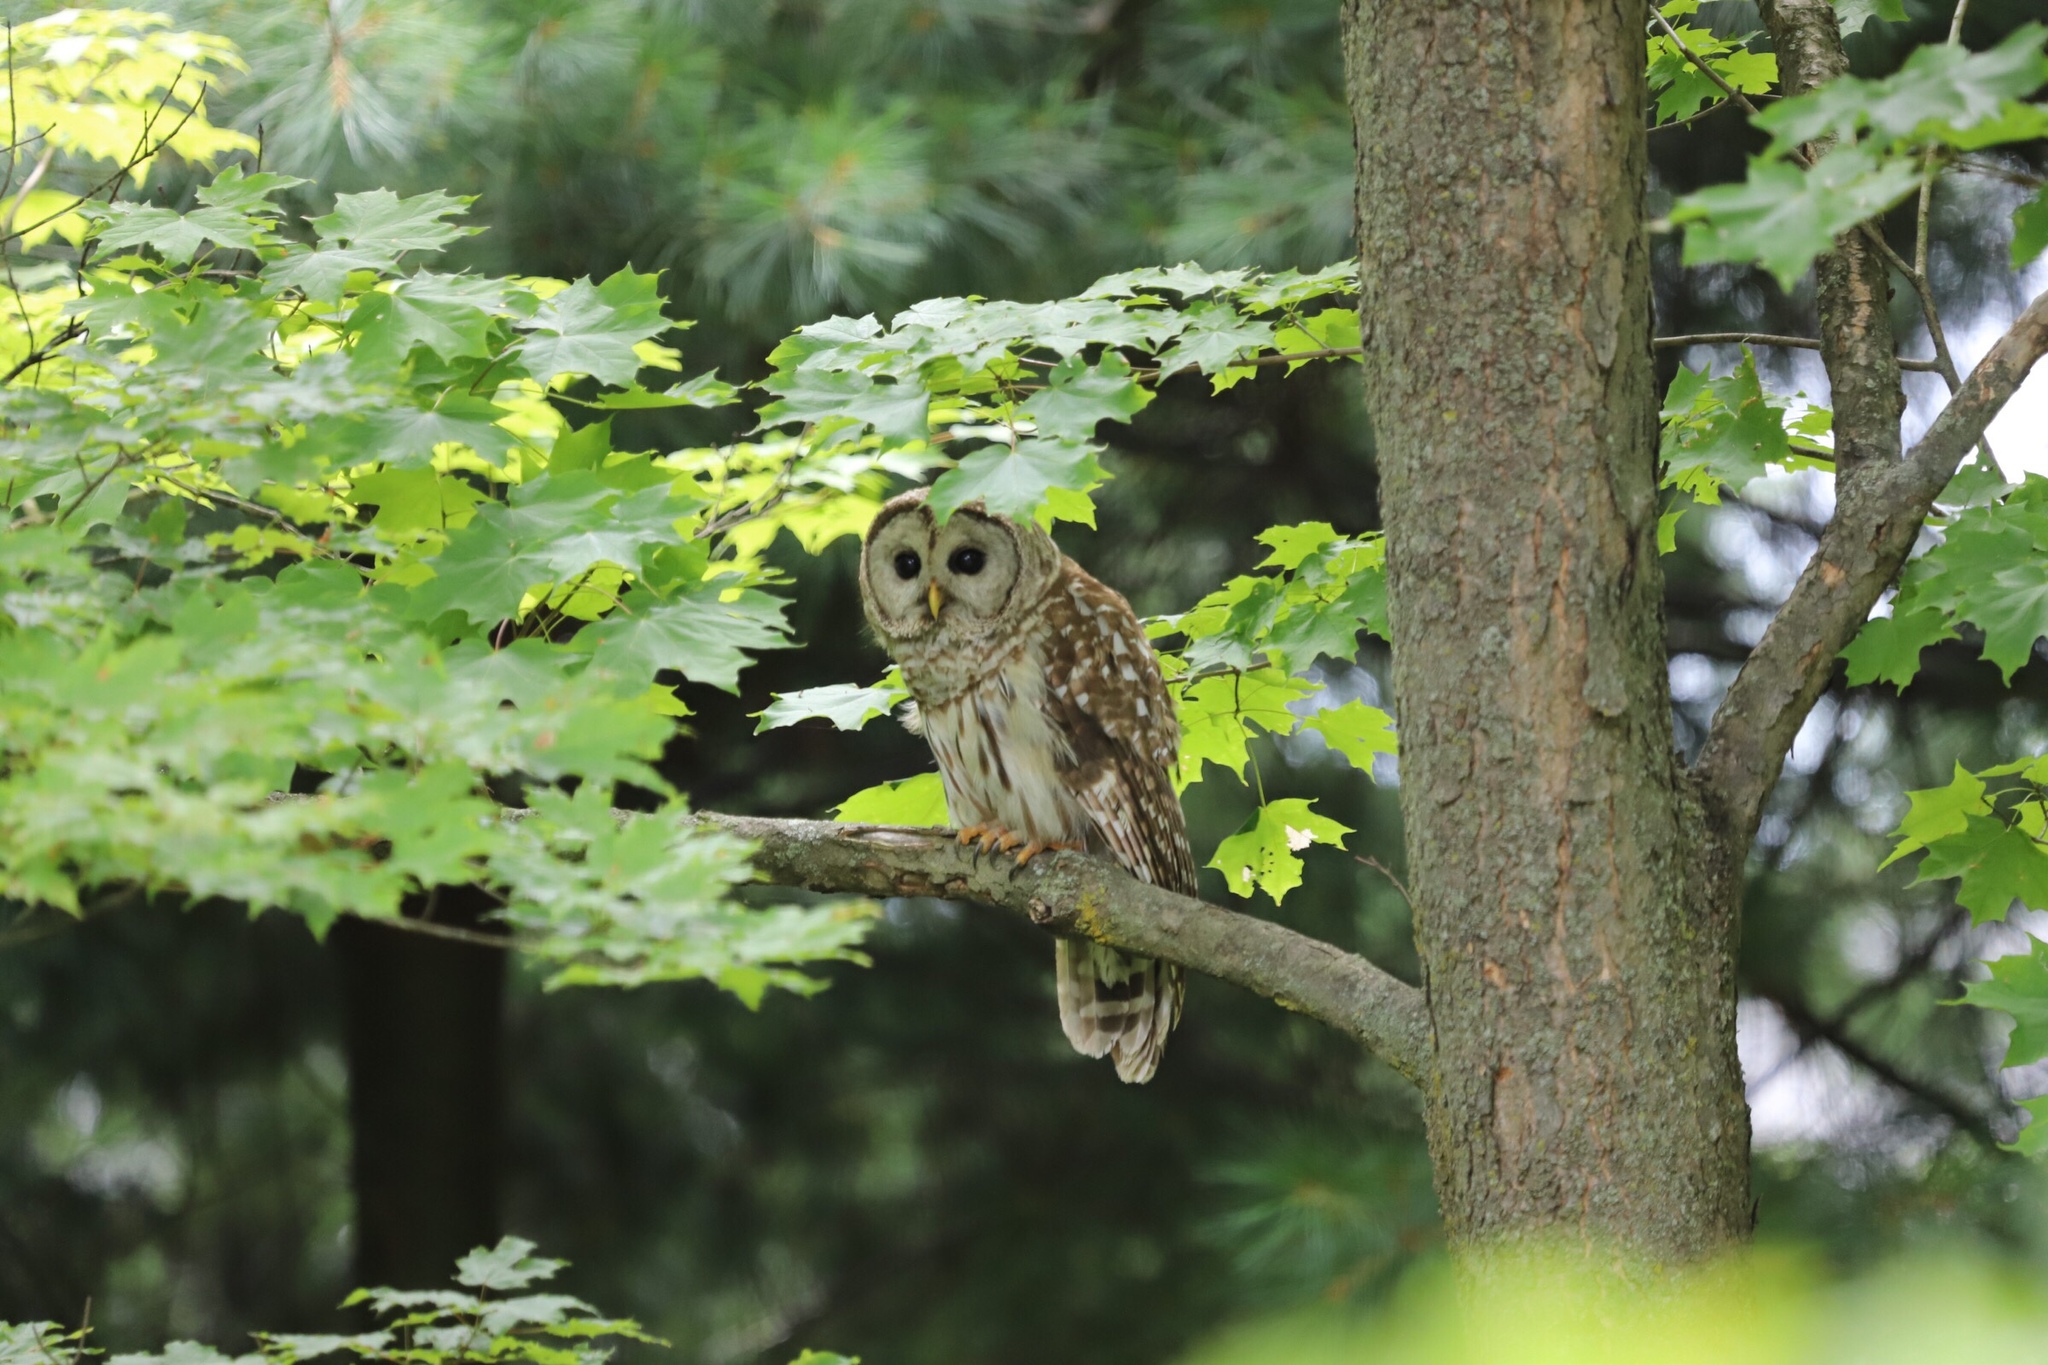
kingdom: Animalia
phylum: Chordata
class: Aves
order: Strigiformes
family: Strigidae
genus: Strix
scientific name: Strix varia
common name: Barred owl
